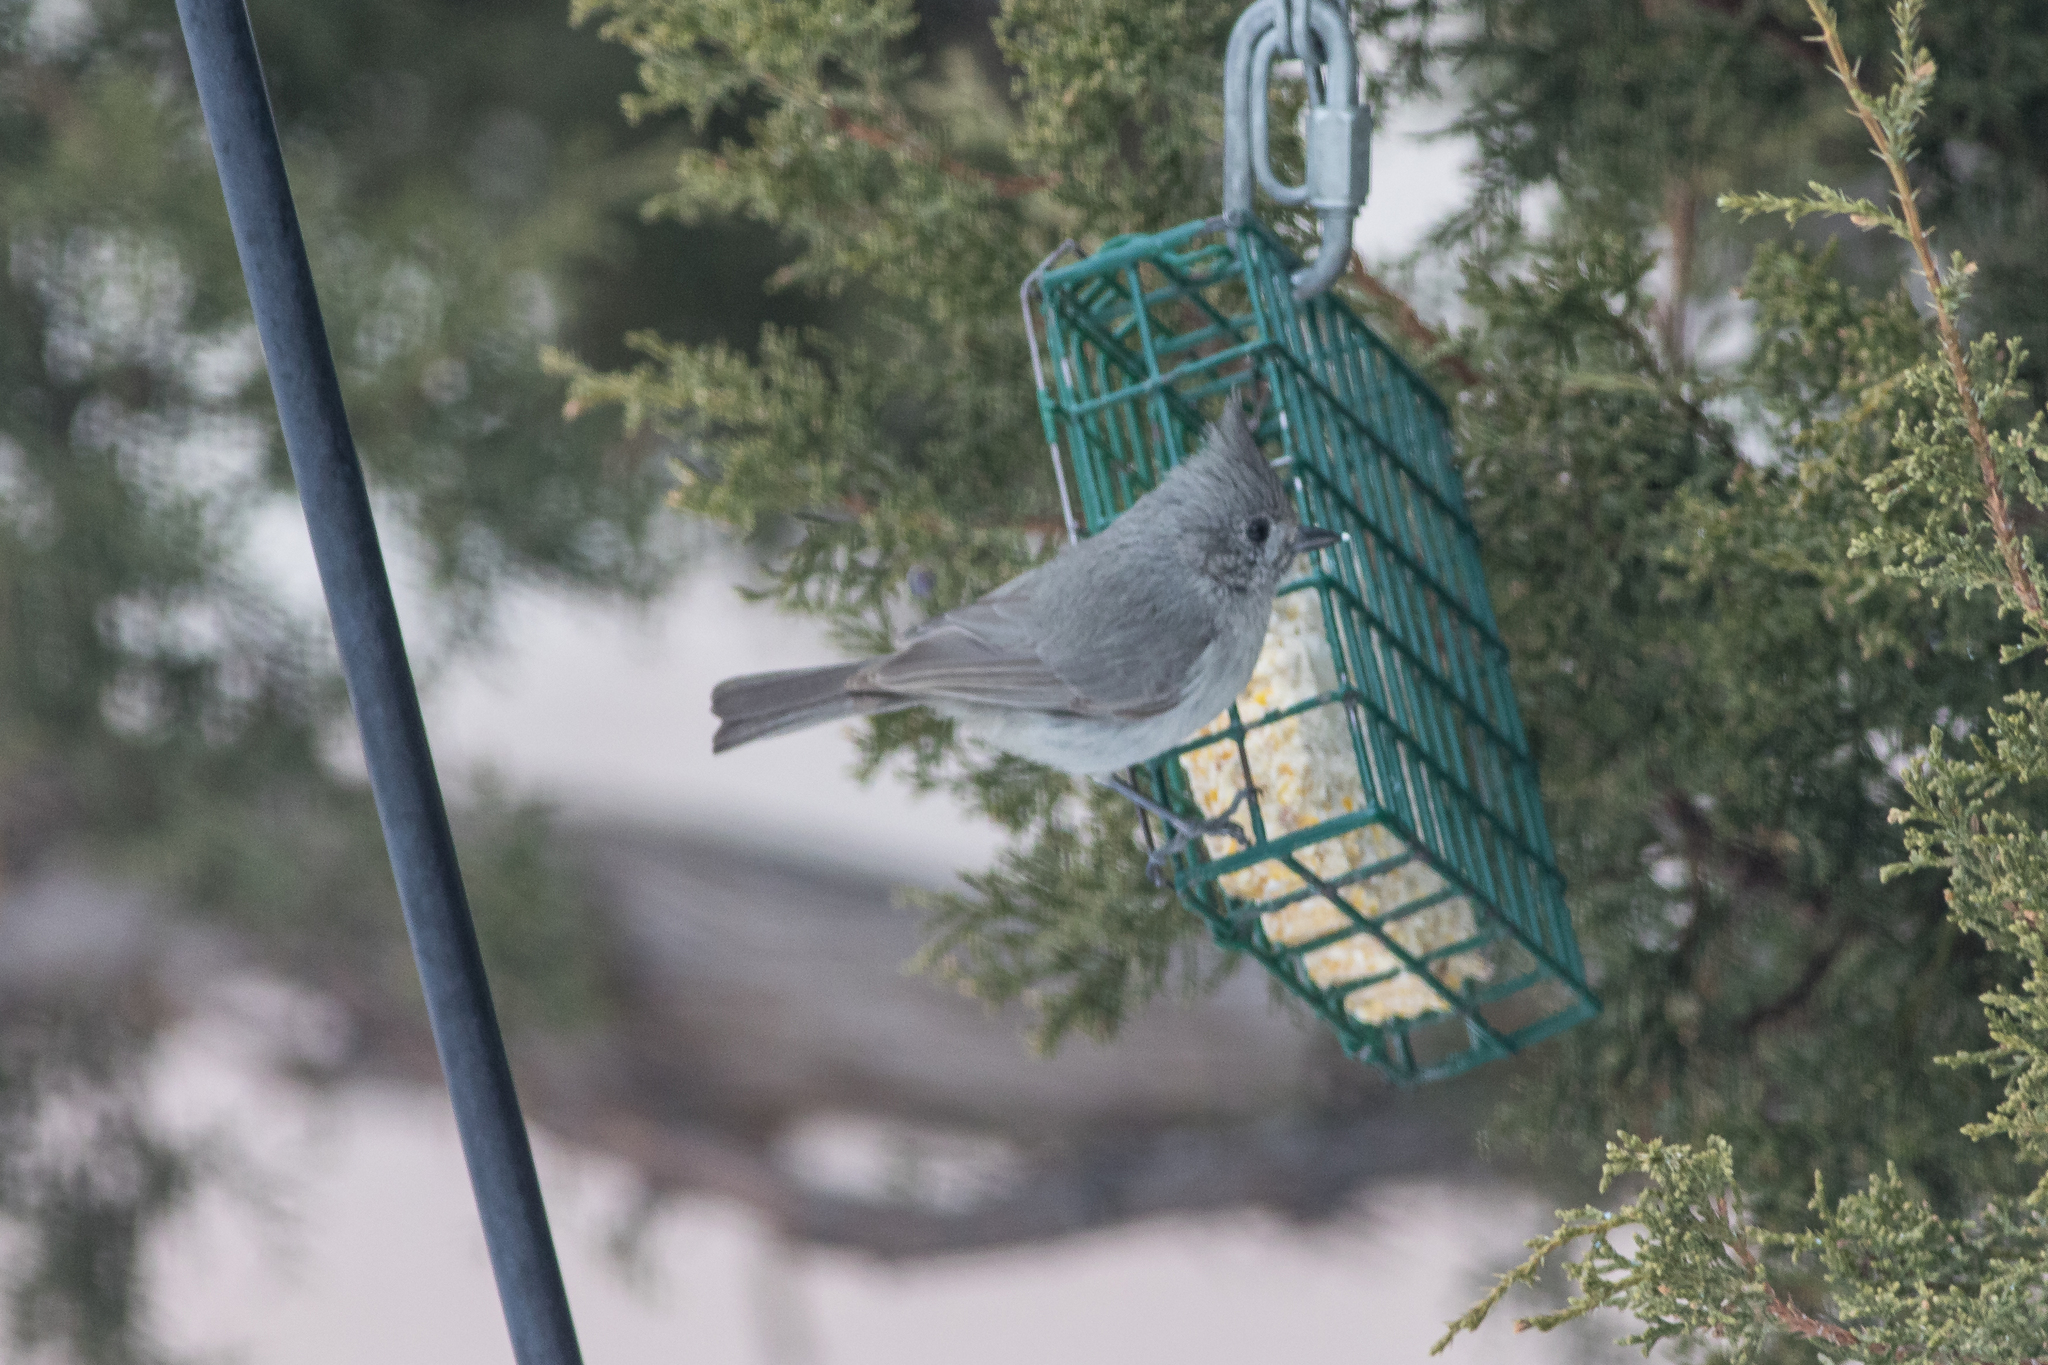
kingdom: Animalia
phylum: Chordata
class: Aves
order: Passeriformes
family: Paridae
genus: Baeolophus
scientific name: Baeolophus ridgwayi
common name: Juniper titmouse
